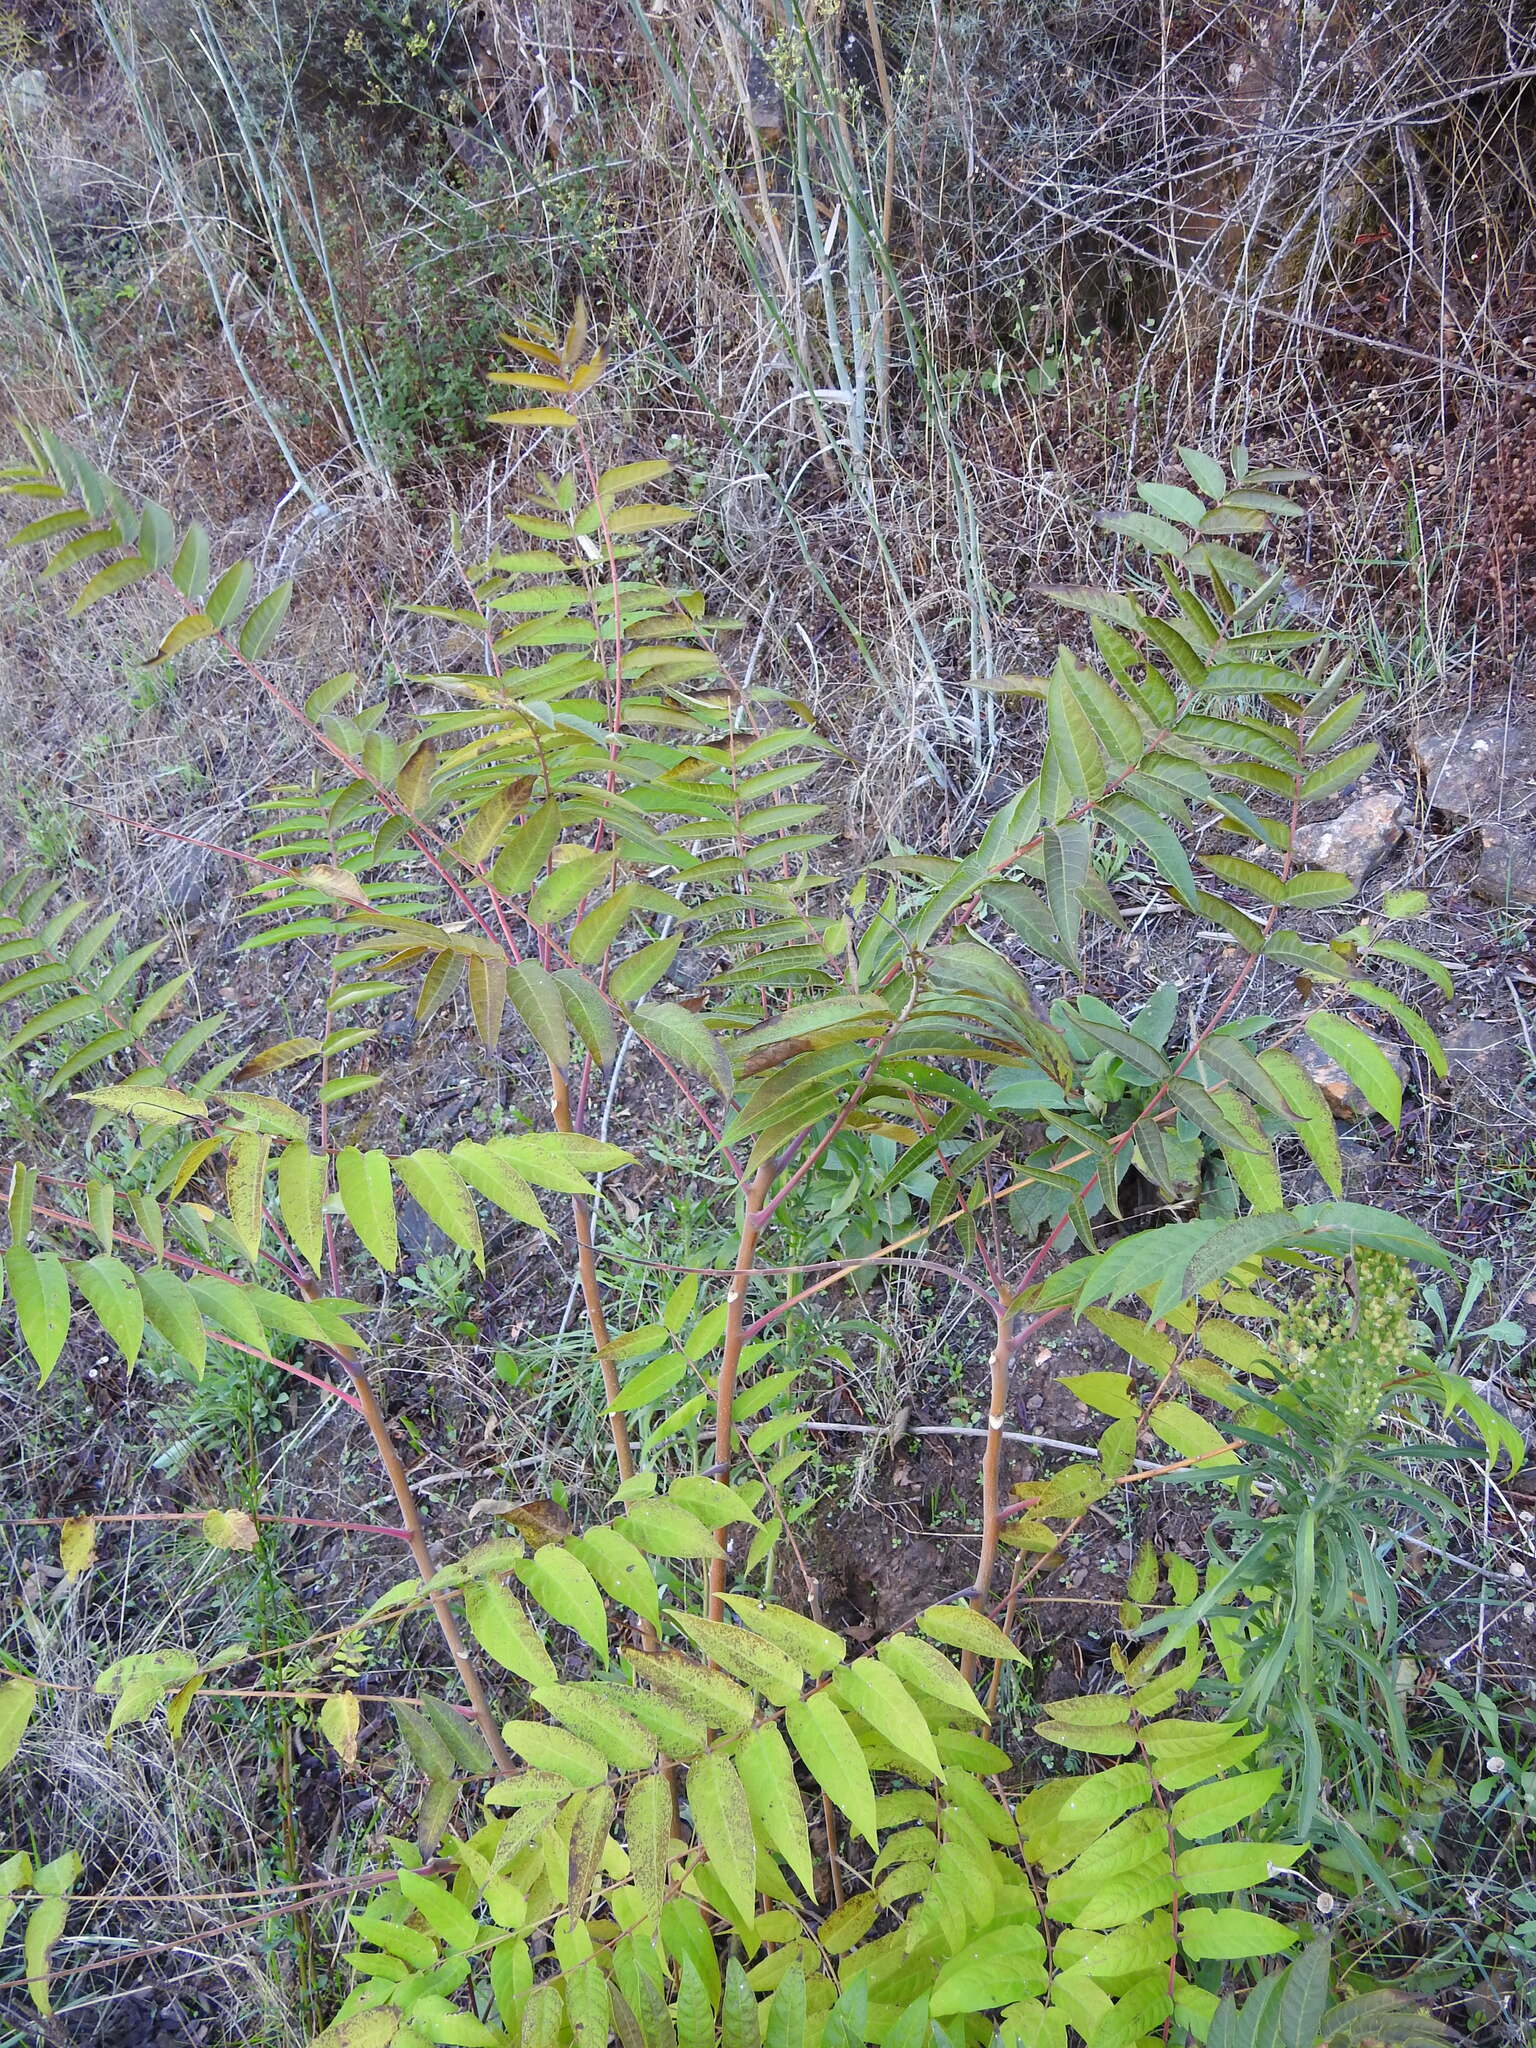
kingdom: Plantae
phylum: Tracheophyta
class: Magnoliopsida
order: Sapindales
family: Simaroubaceae
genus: Ailanthus
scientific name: Ailanthus altissima
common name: Tree-of-heaven
